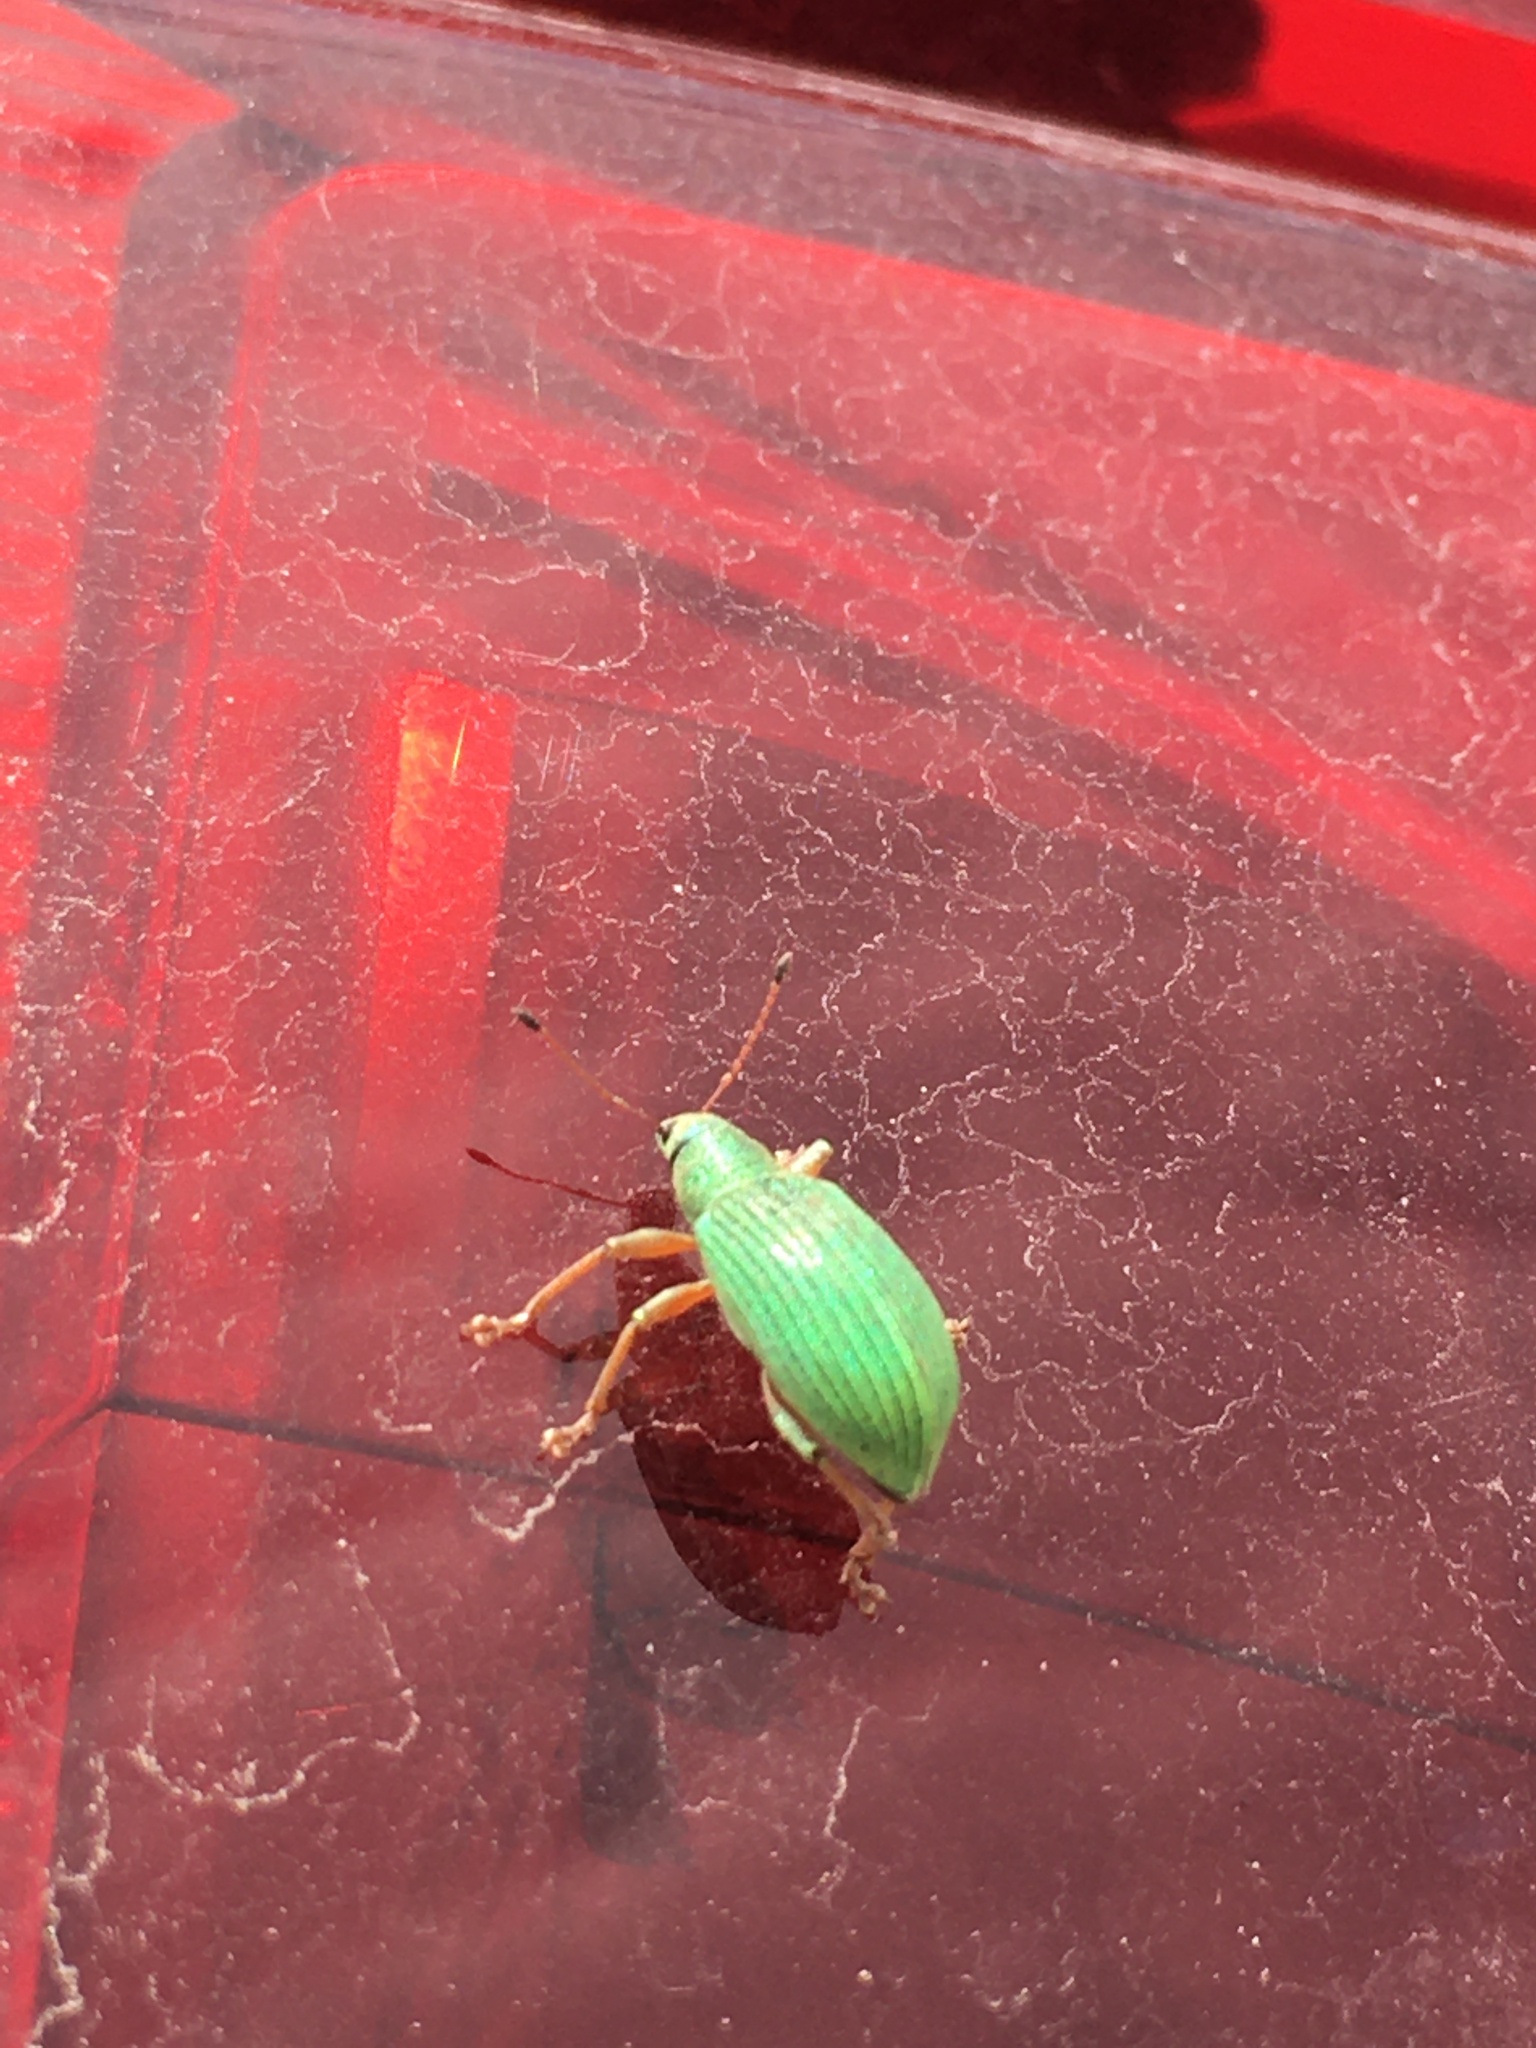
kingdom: Animalia
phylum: Arthropoda
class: Insecta
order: Coleoptera
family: Curculionidae
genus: Polydrusus
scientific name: Polydrusus formosus
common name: Weevil
